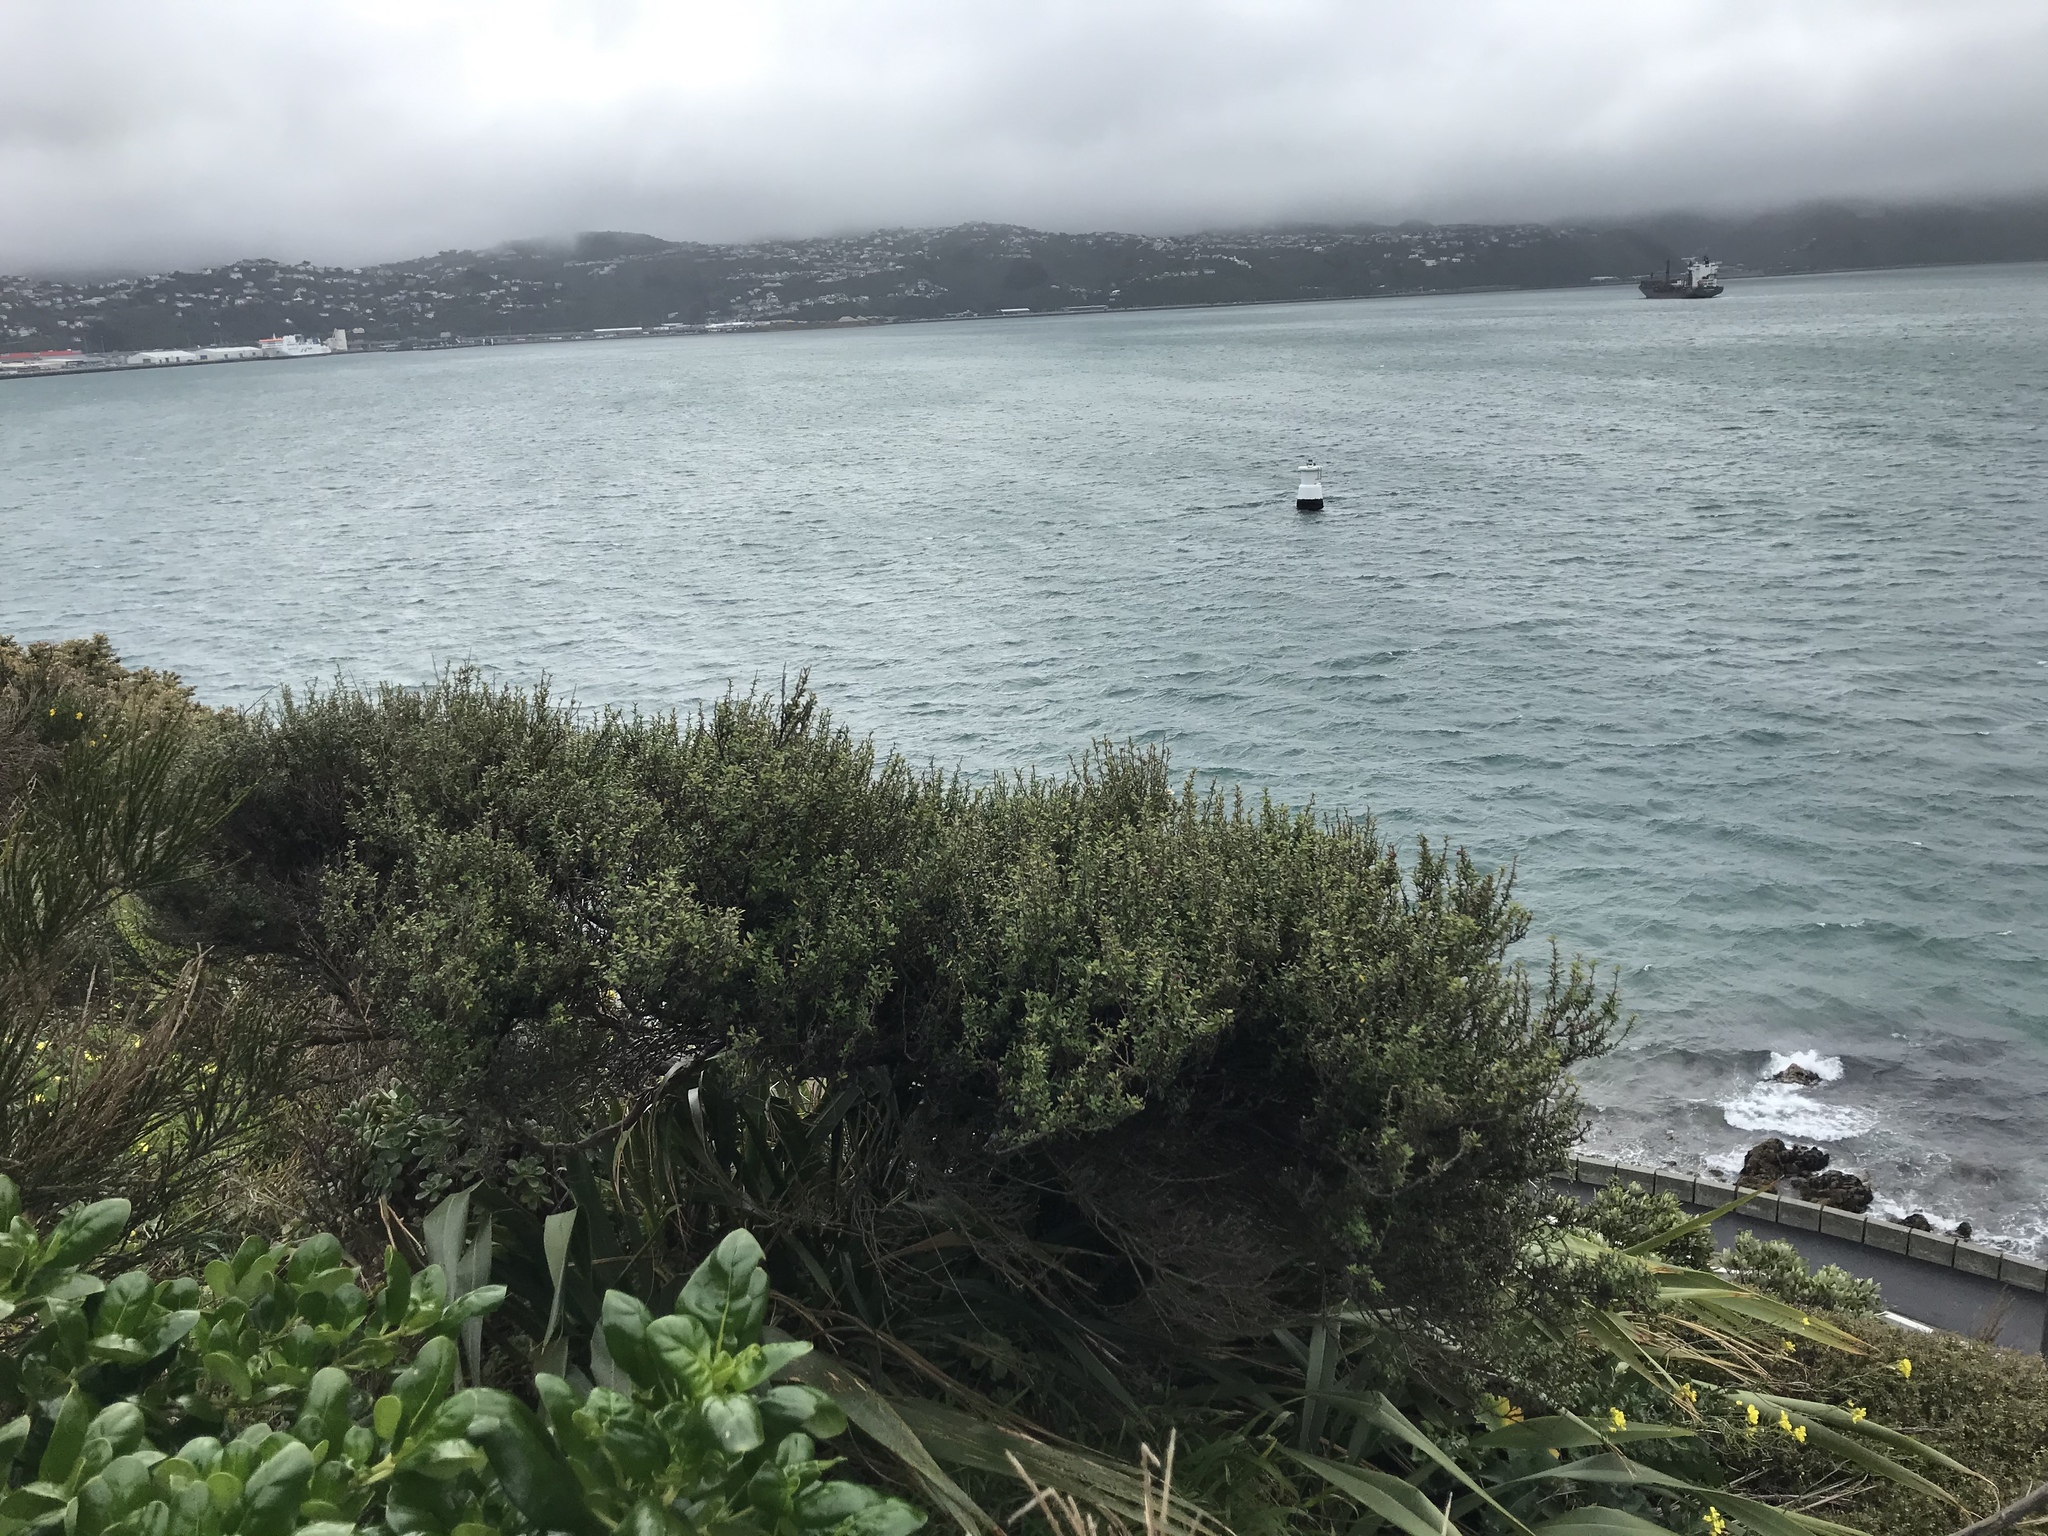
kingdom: Plantae
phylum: Tracheophyta
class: Magnoliopsida
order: Myrtales
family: Myrtaceae
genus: Leptospermum
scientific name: Leptospermum scoparium
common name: Broom tea-tree
